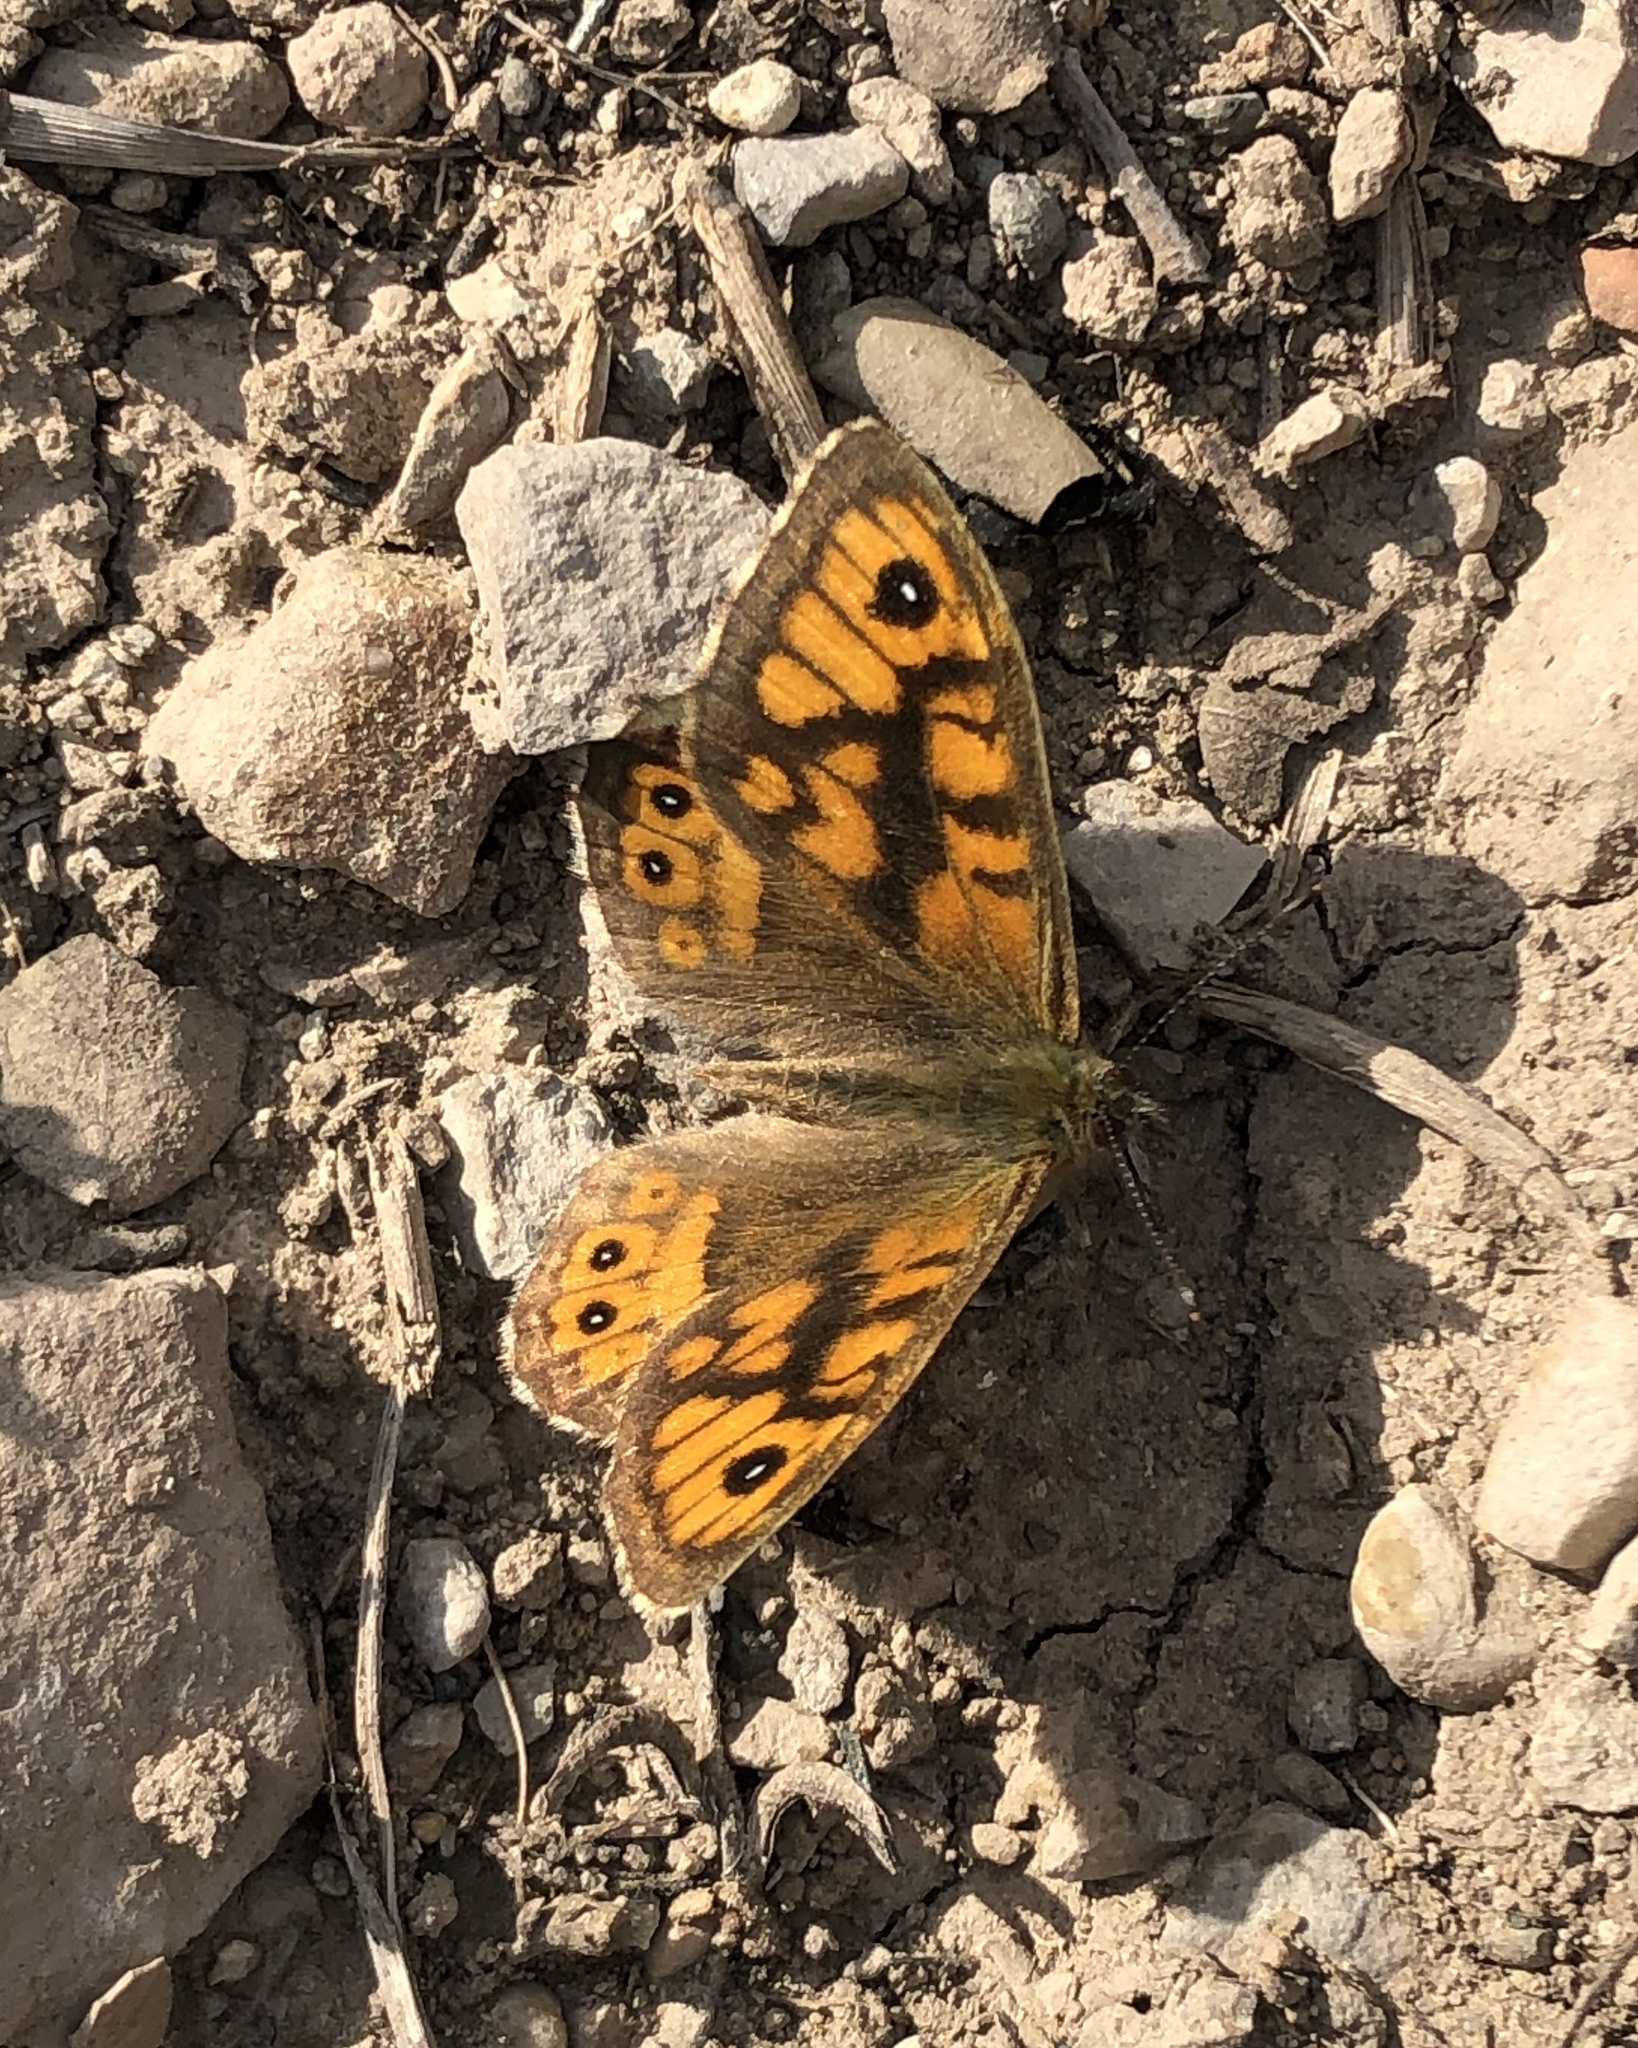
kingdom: Animalia
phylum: Arthropoda
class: Insecta
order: Lepidoptera
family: Nymphalidae
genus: Pararge
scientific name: Pararge Lasiommata megera
